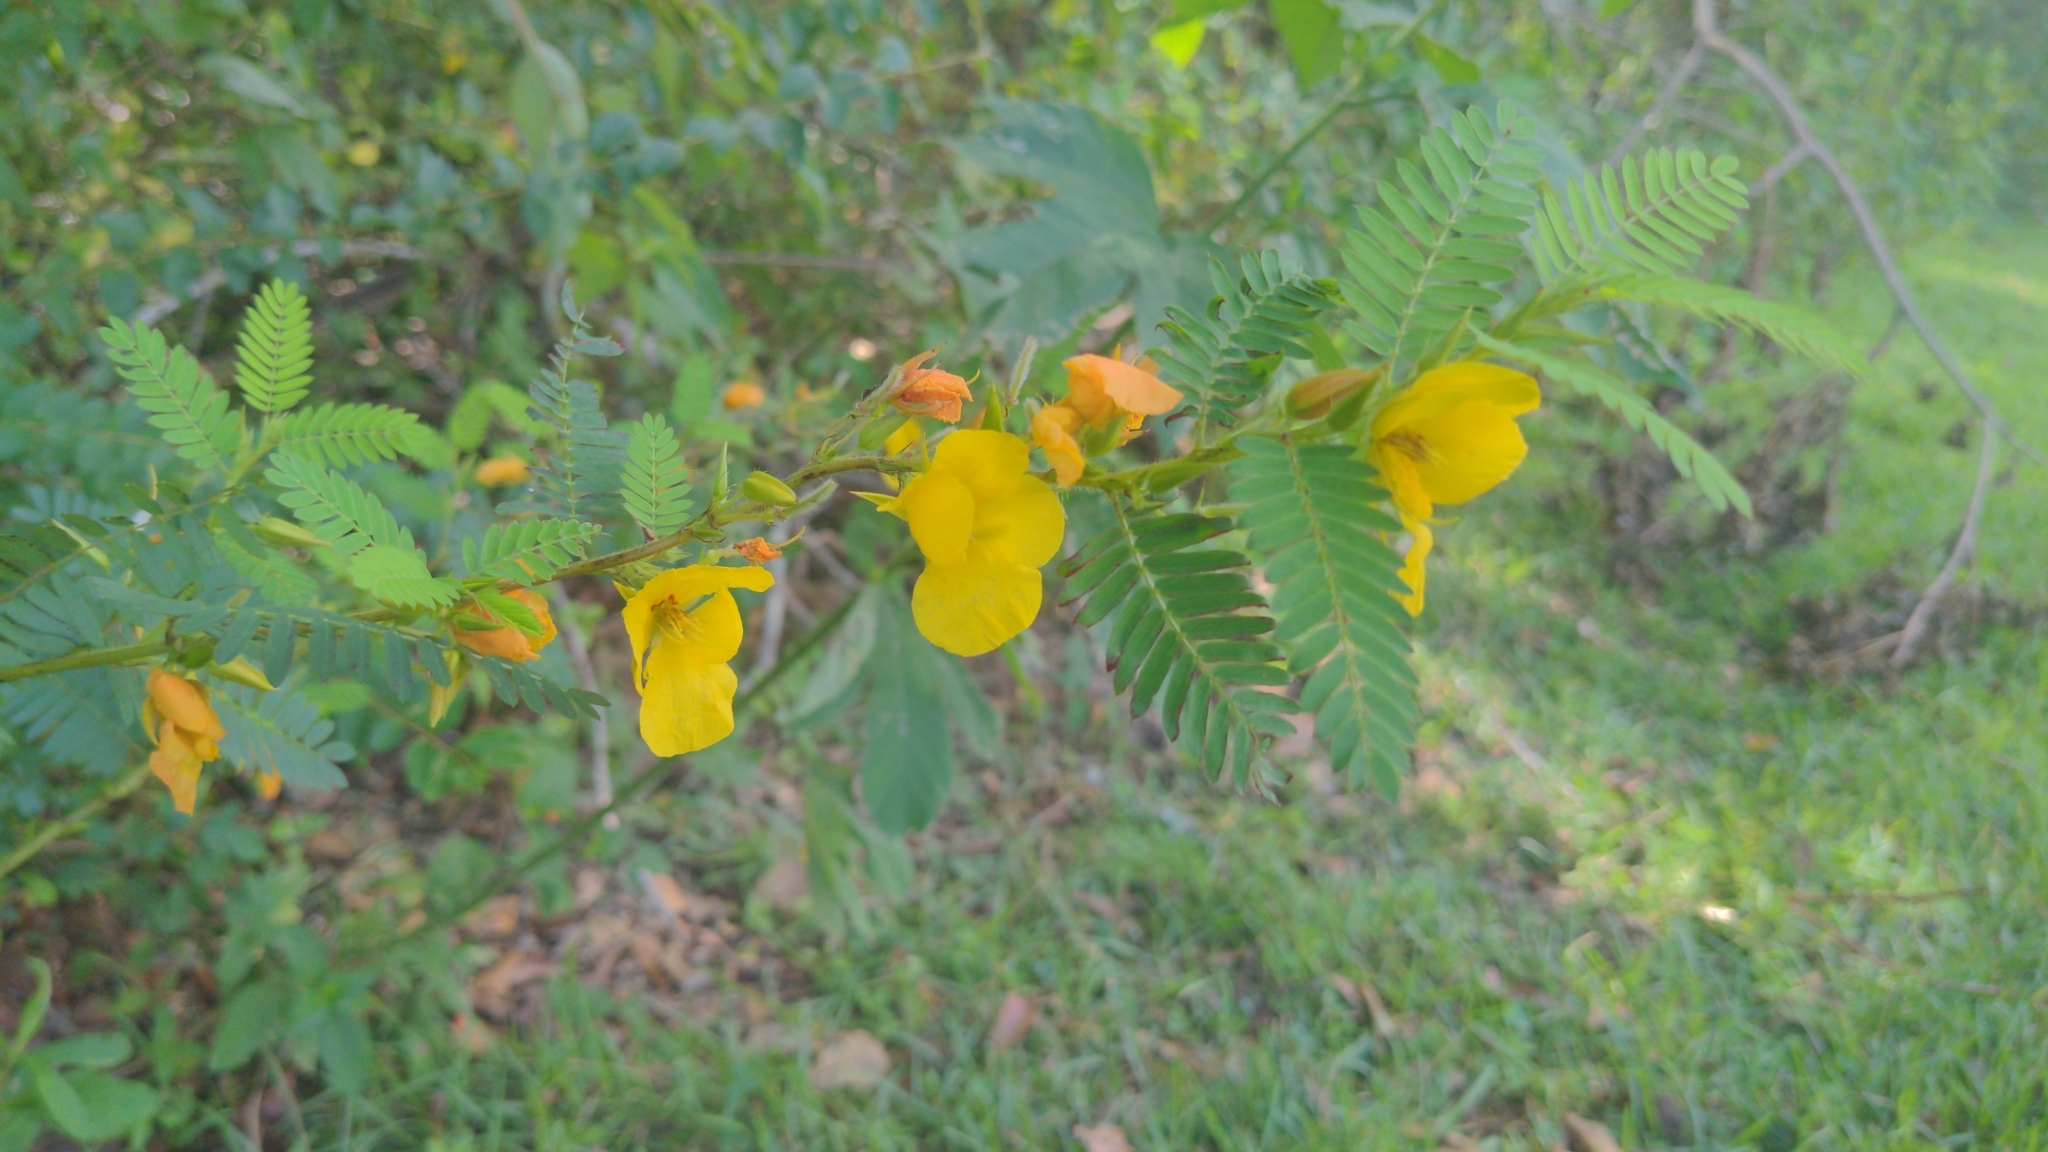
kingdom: Plantae
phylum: Tracheophyta
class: Magnoliopsida
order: Fabales
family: Fabaceae
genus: Chamaecrista
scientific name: Chamaecrista fasciculata
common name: Golden cassia
